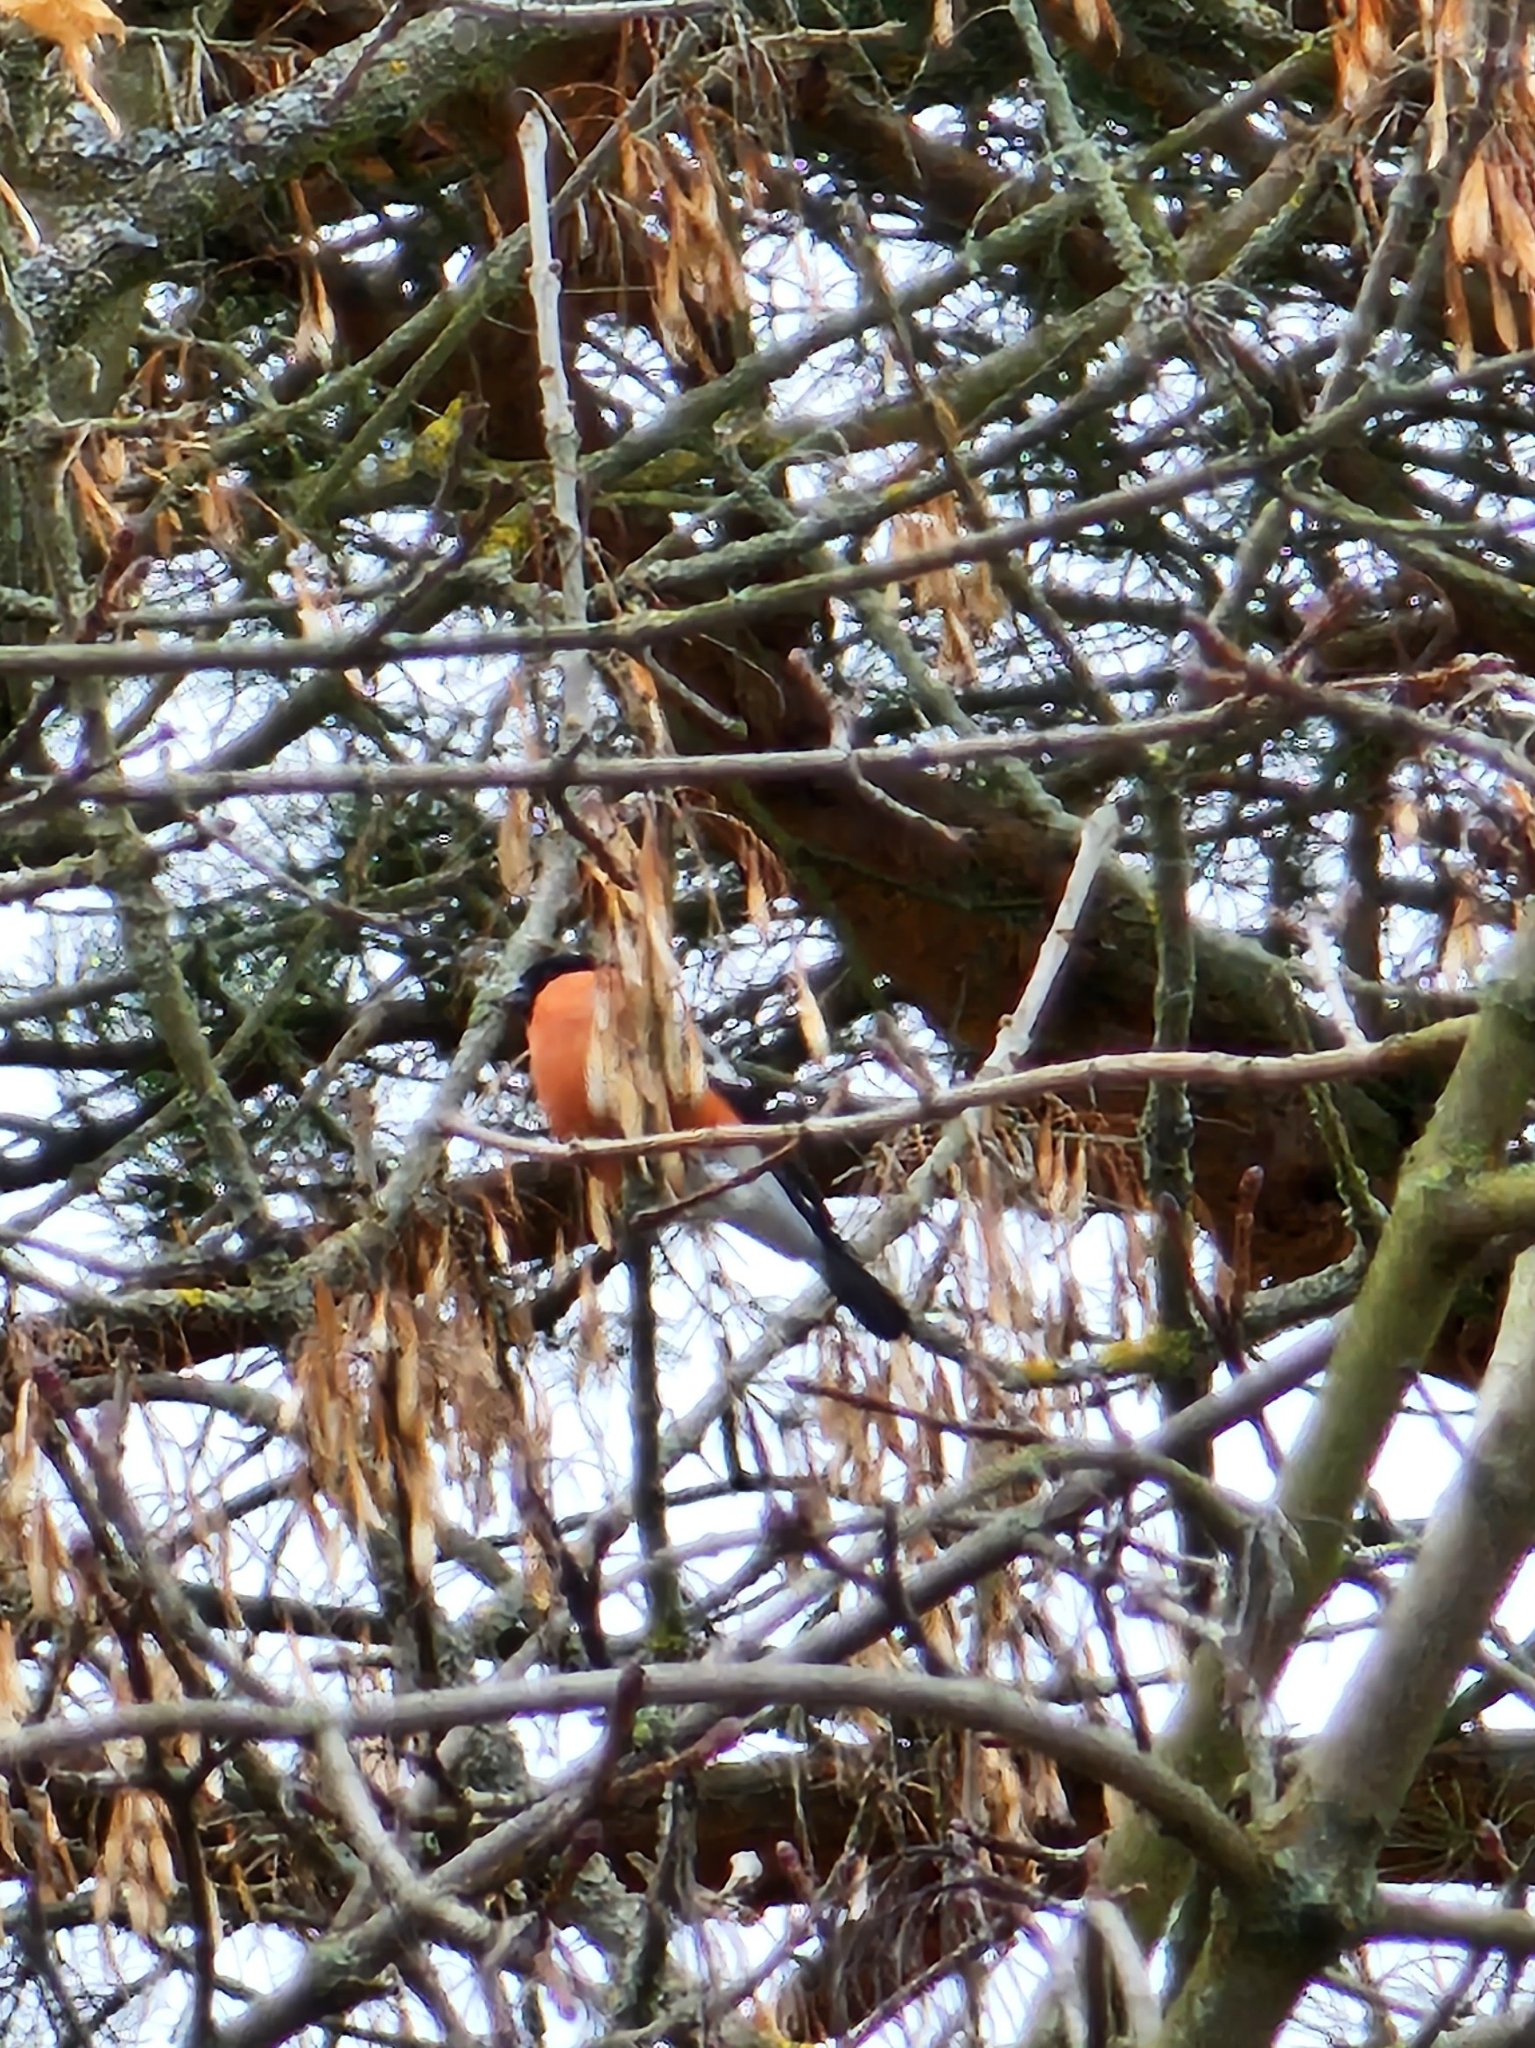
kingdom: Animalia
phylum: Chordata
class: Aves
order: Passeriformes
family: Fringillidae
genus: Pyrrhula
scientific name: Pyrrhula pyrrhula
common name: Eurasian bullfinch
